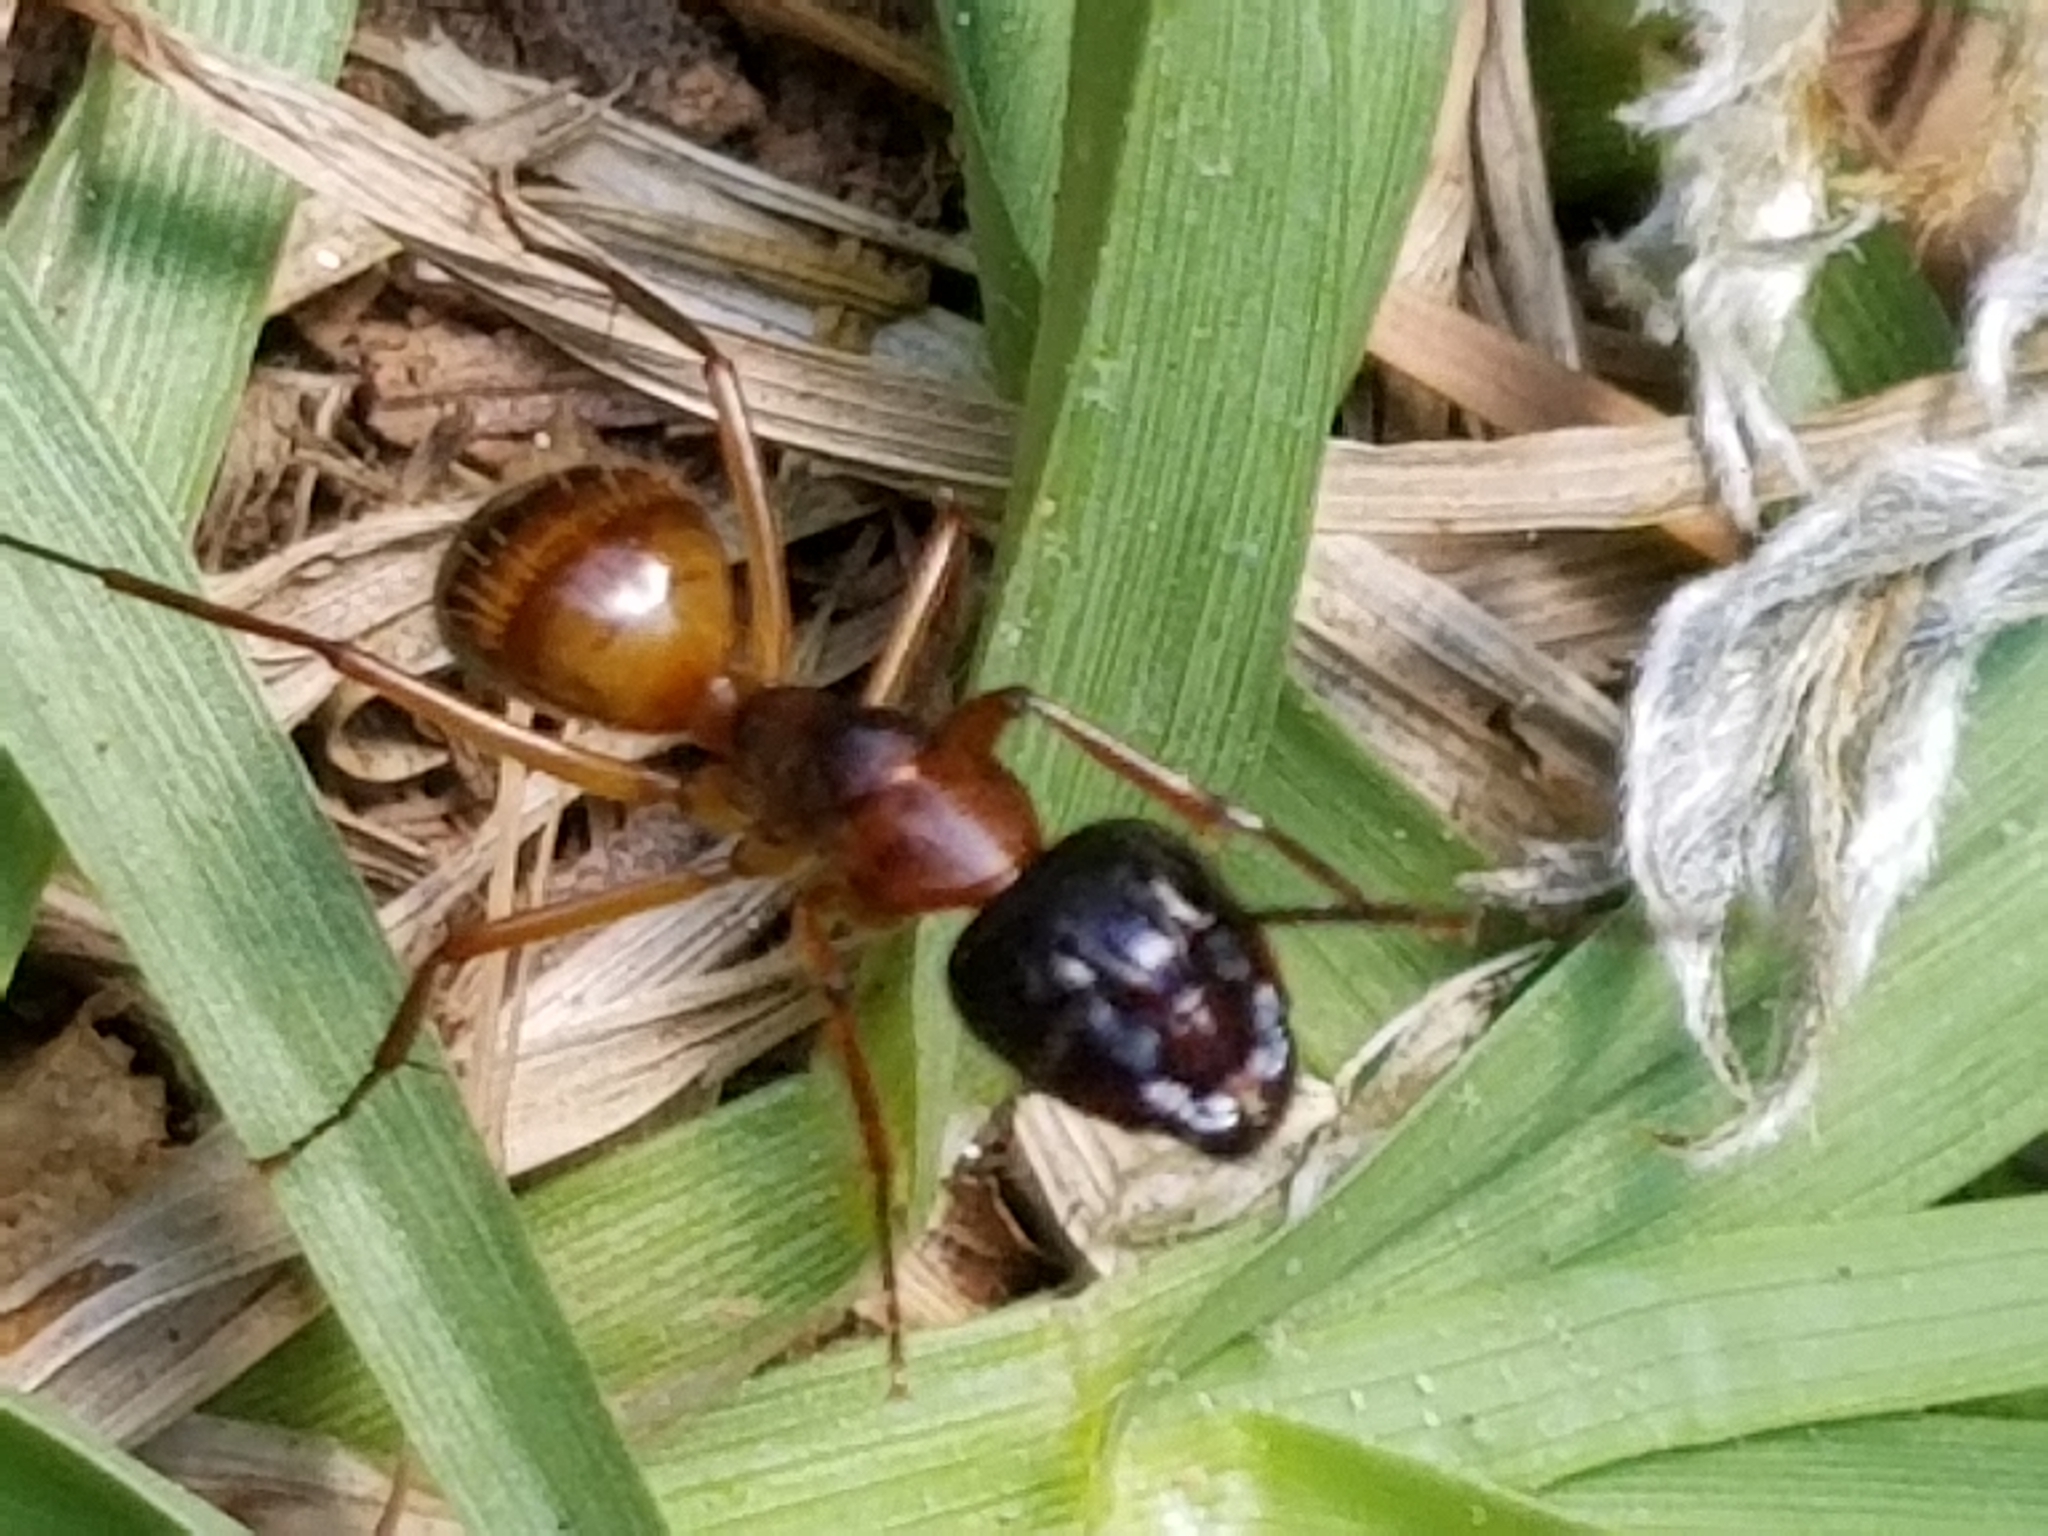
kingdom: Animalia
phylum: Arthropoda
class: Insecta
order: Hymenoptera
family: Formicidae
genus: Camponotus
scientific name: Camponotus americanus
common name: American carpenter ant
